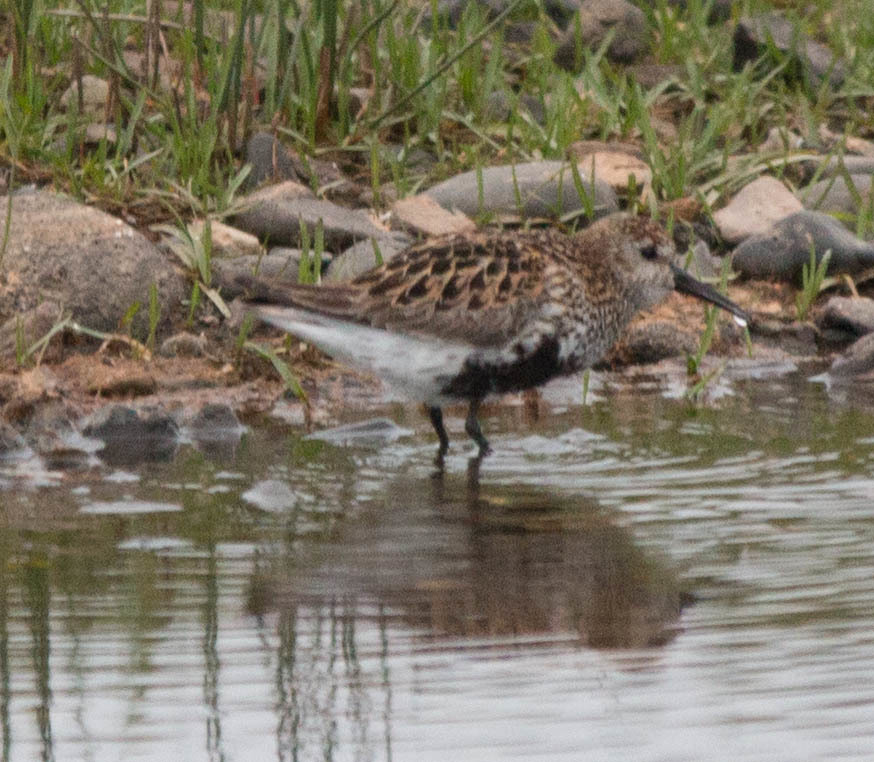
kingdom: Animalia
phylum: Chordata
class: Aves
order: Charadriiformes
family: Scolopacidae
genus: Calidris
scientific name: Calidris alpina
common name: Dunlin
